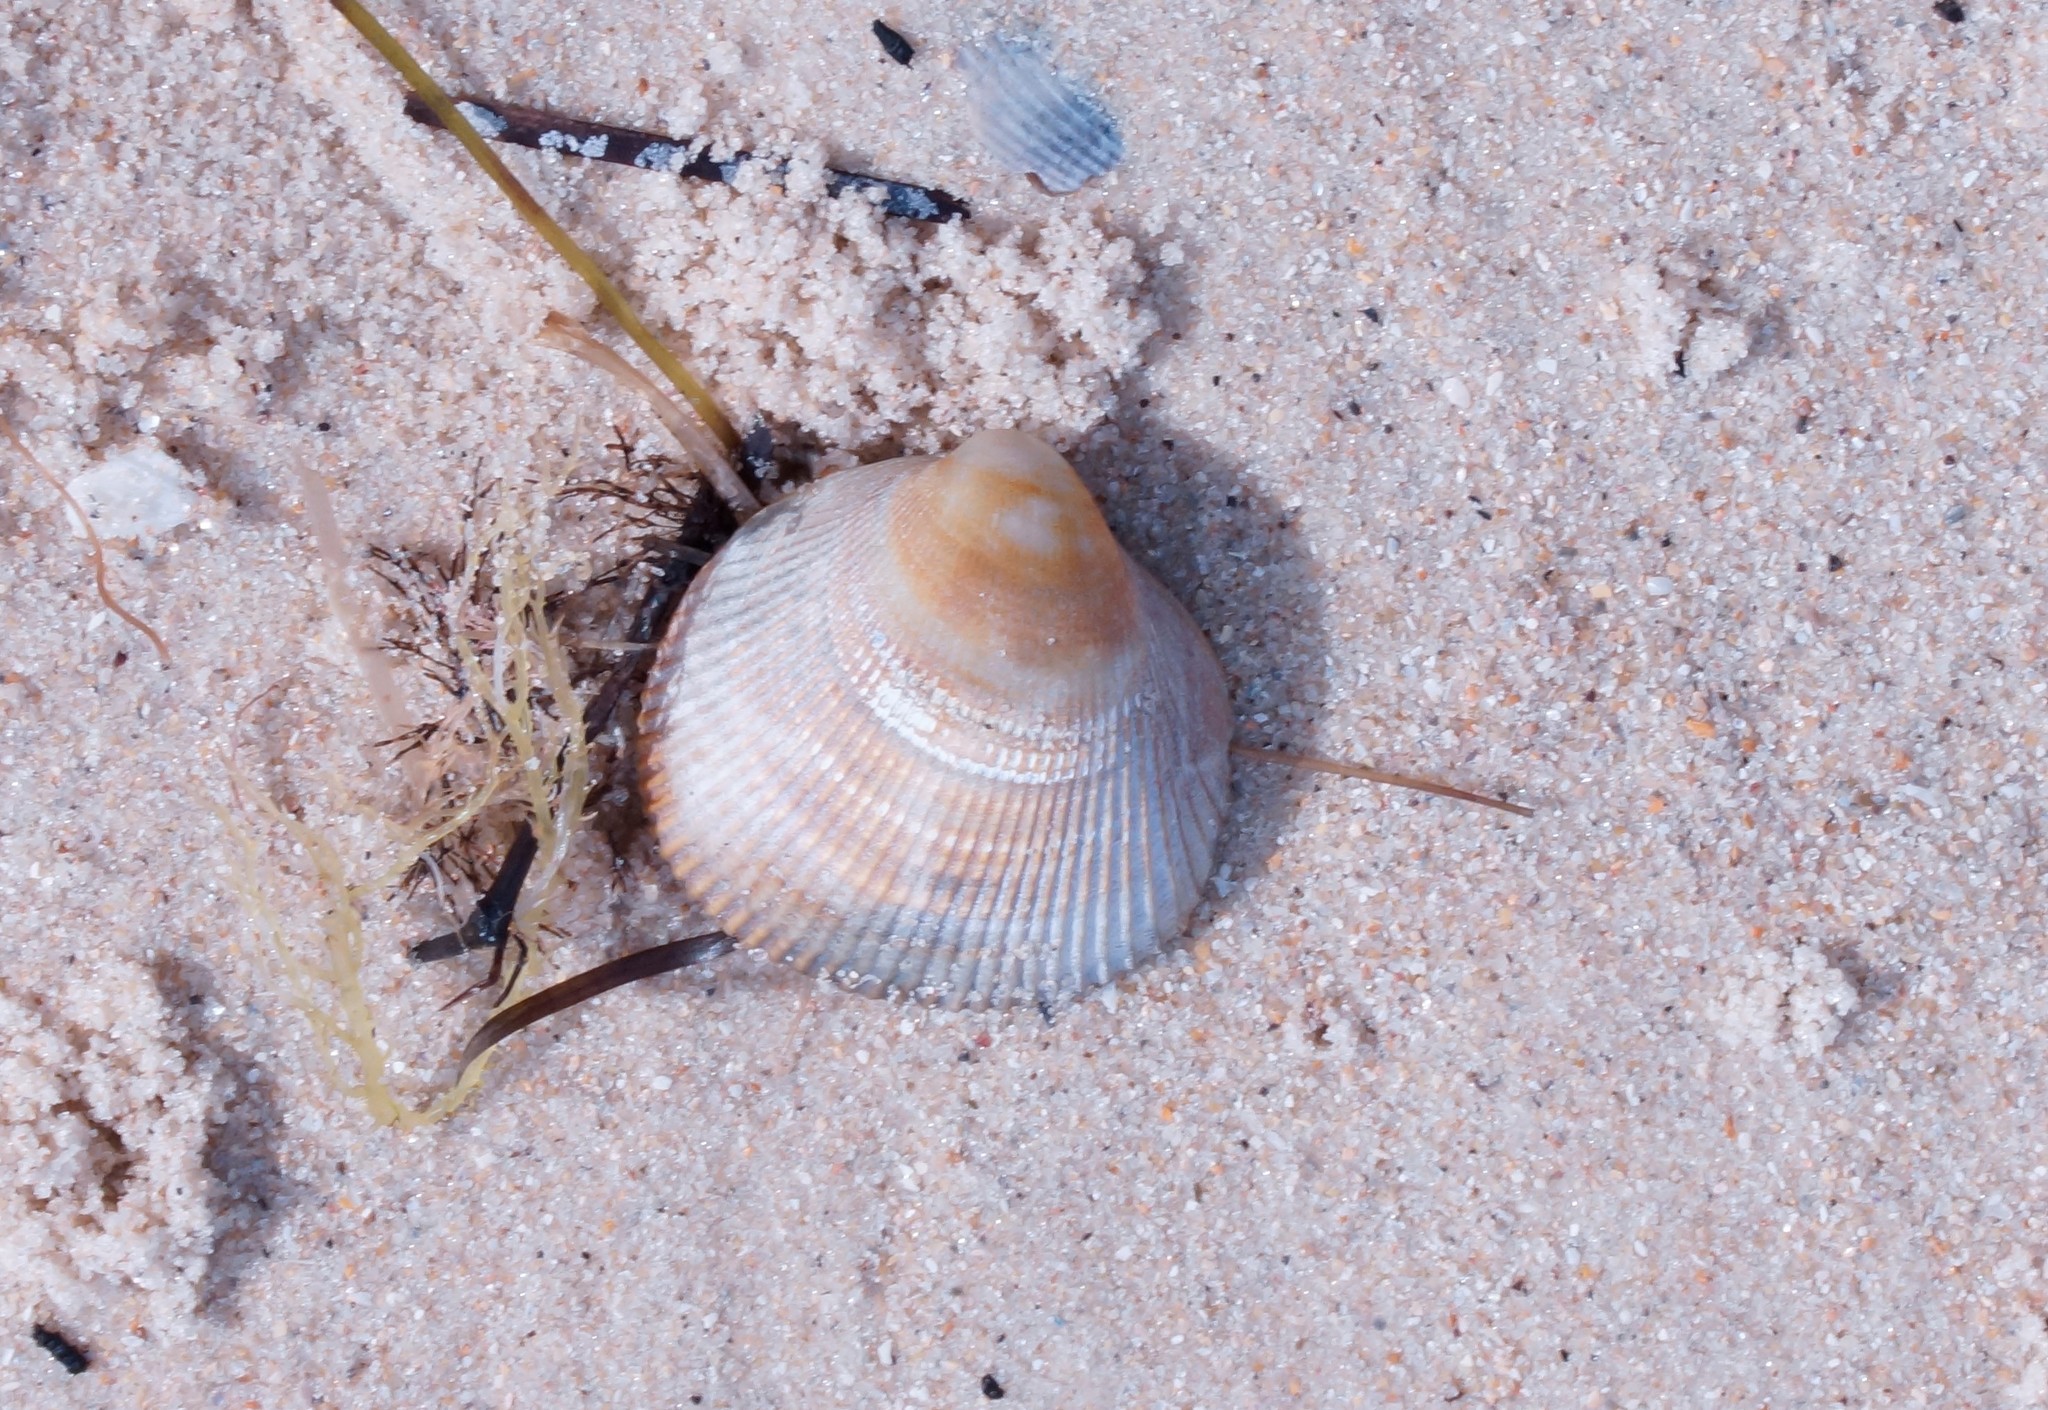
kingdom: Animalia
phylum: Mollusca
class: Bivalvia
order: Cardiida
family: Cardiidae
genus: Fulvia
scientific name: Fulvia tenuicostata
